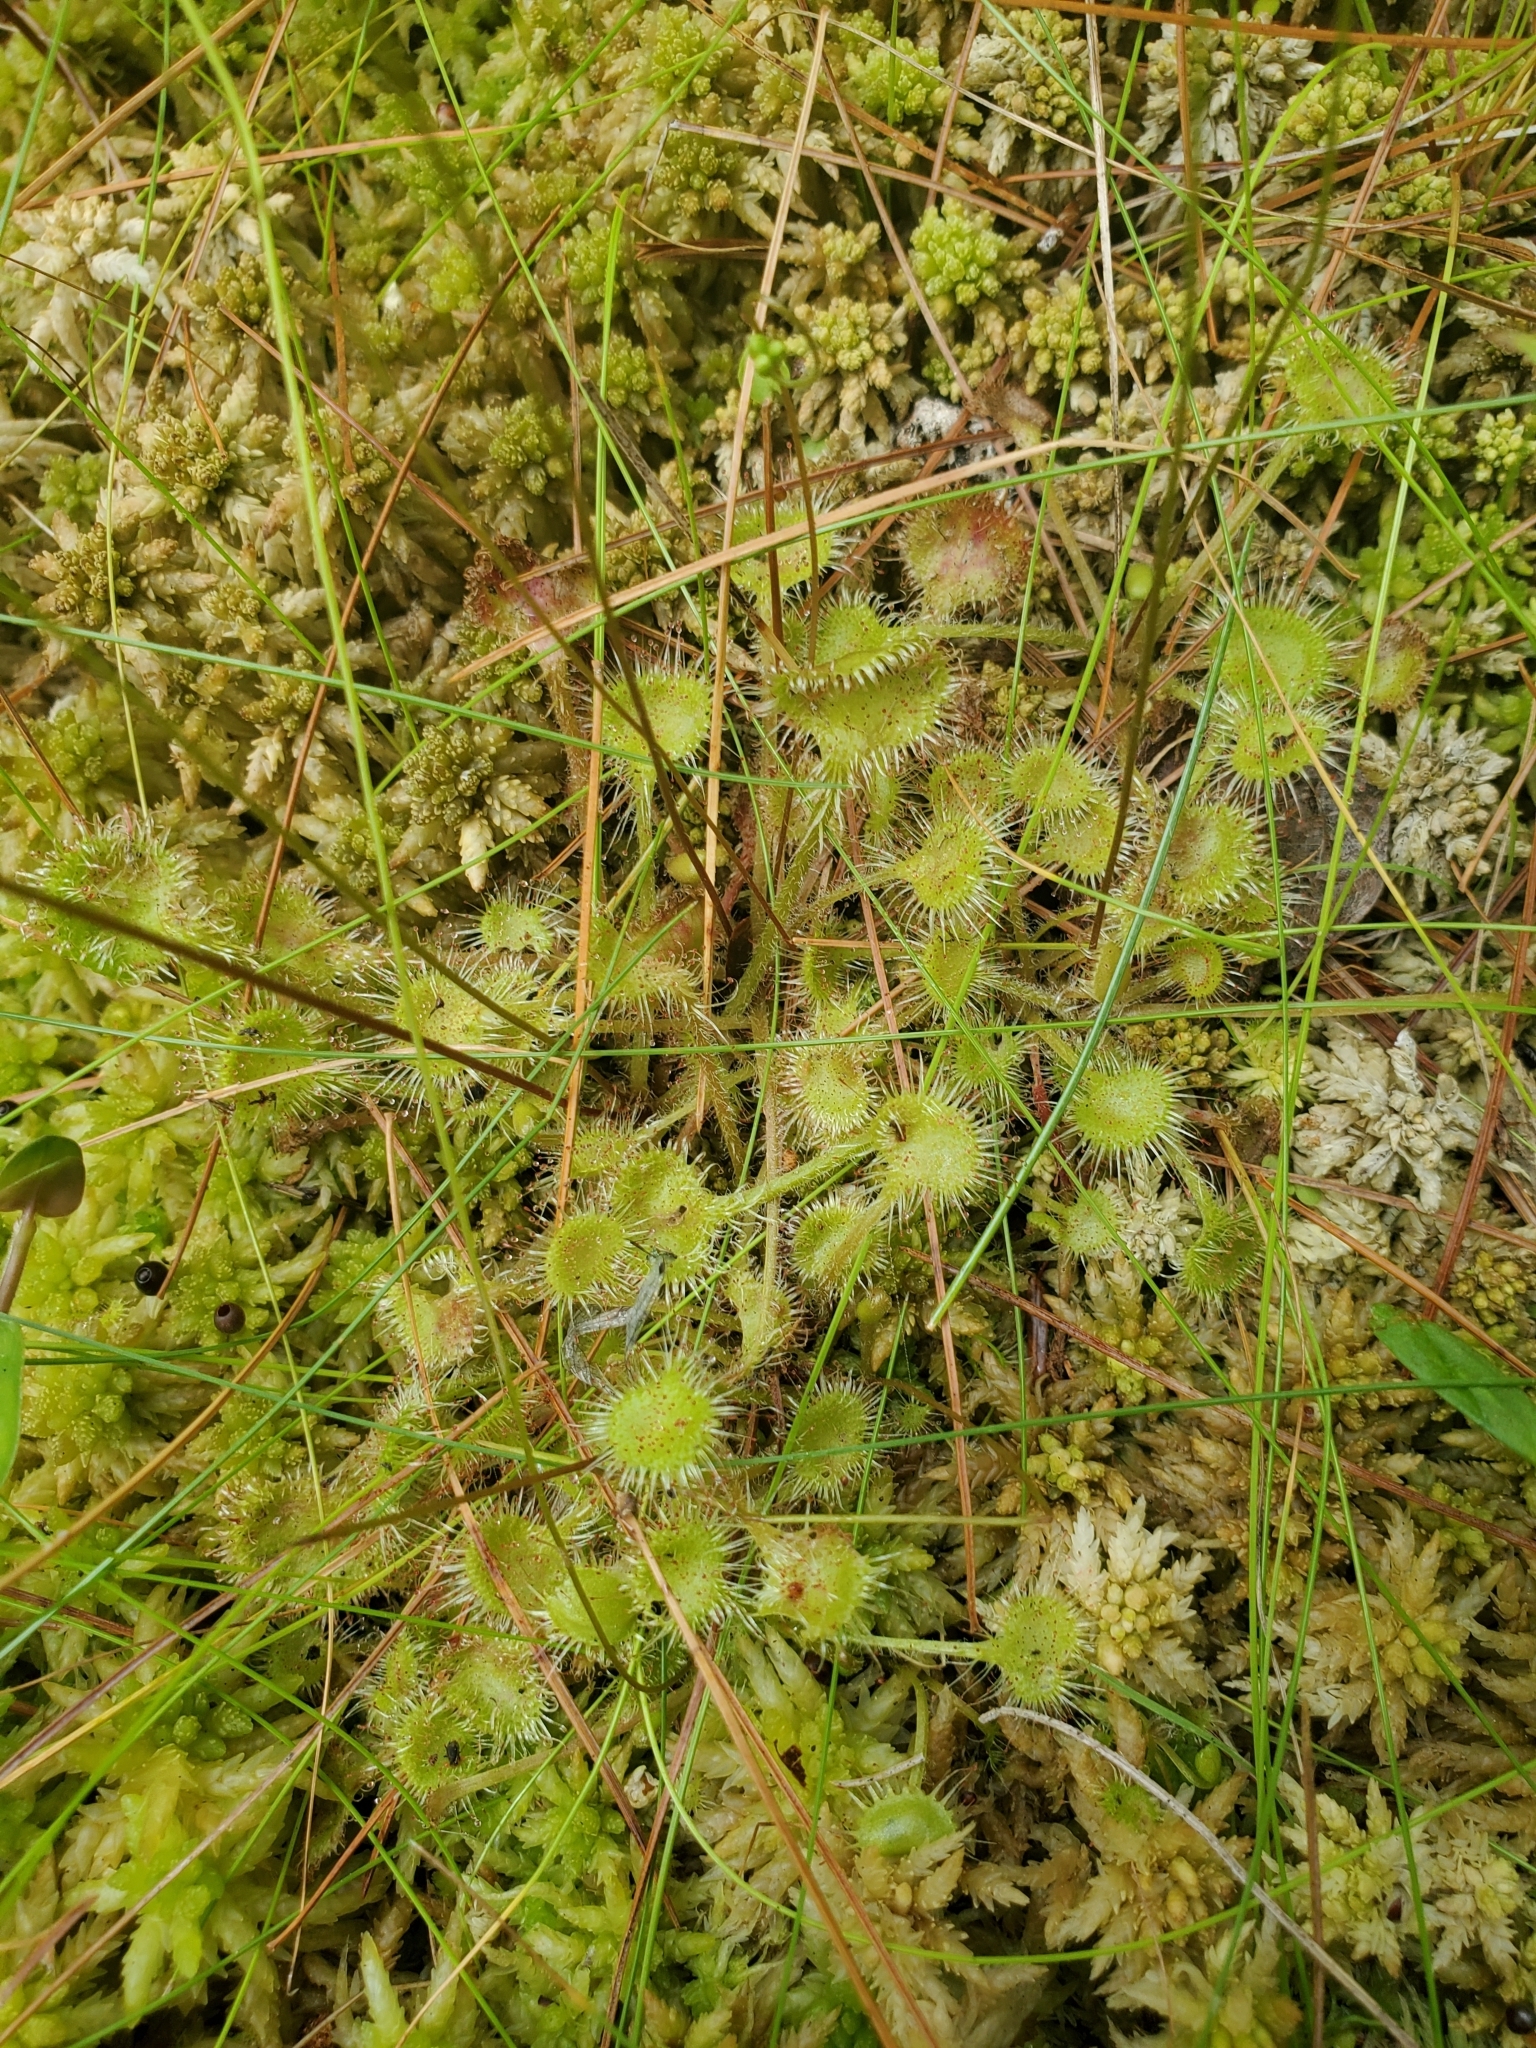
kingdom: Plantae
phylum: Tracheophyta
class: Magnoliopsida
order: Caryophyllales
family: Droseraceae
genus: Drosera
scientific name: Drosera rotundifolia
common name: Round-leaved sundew
